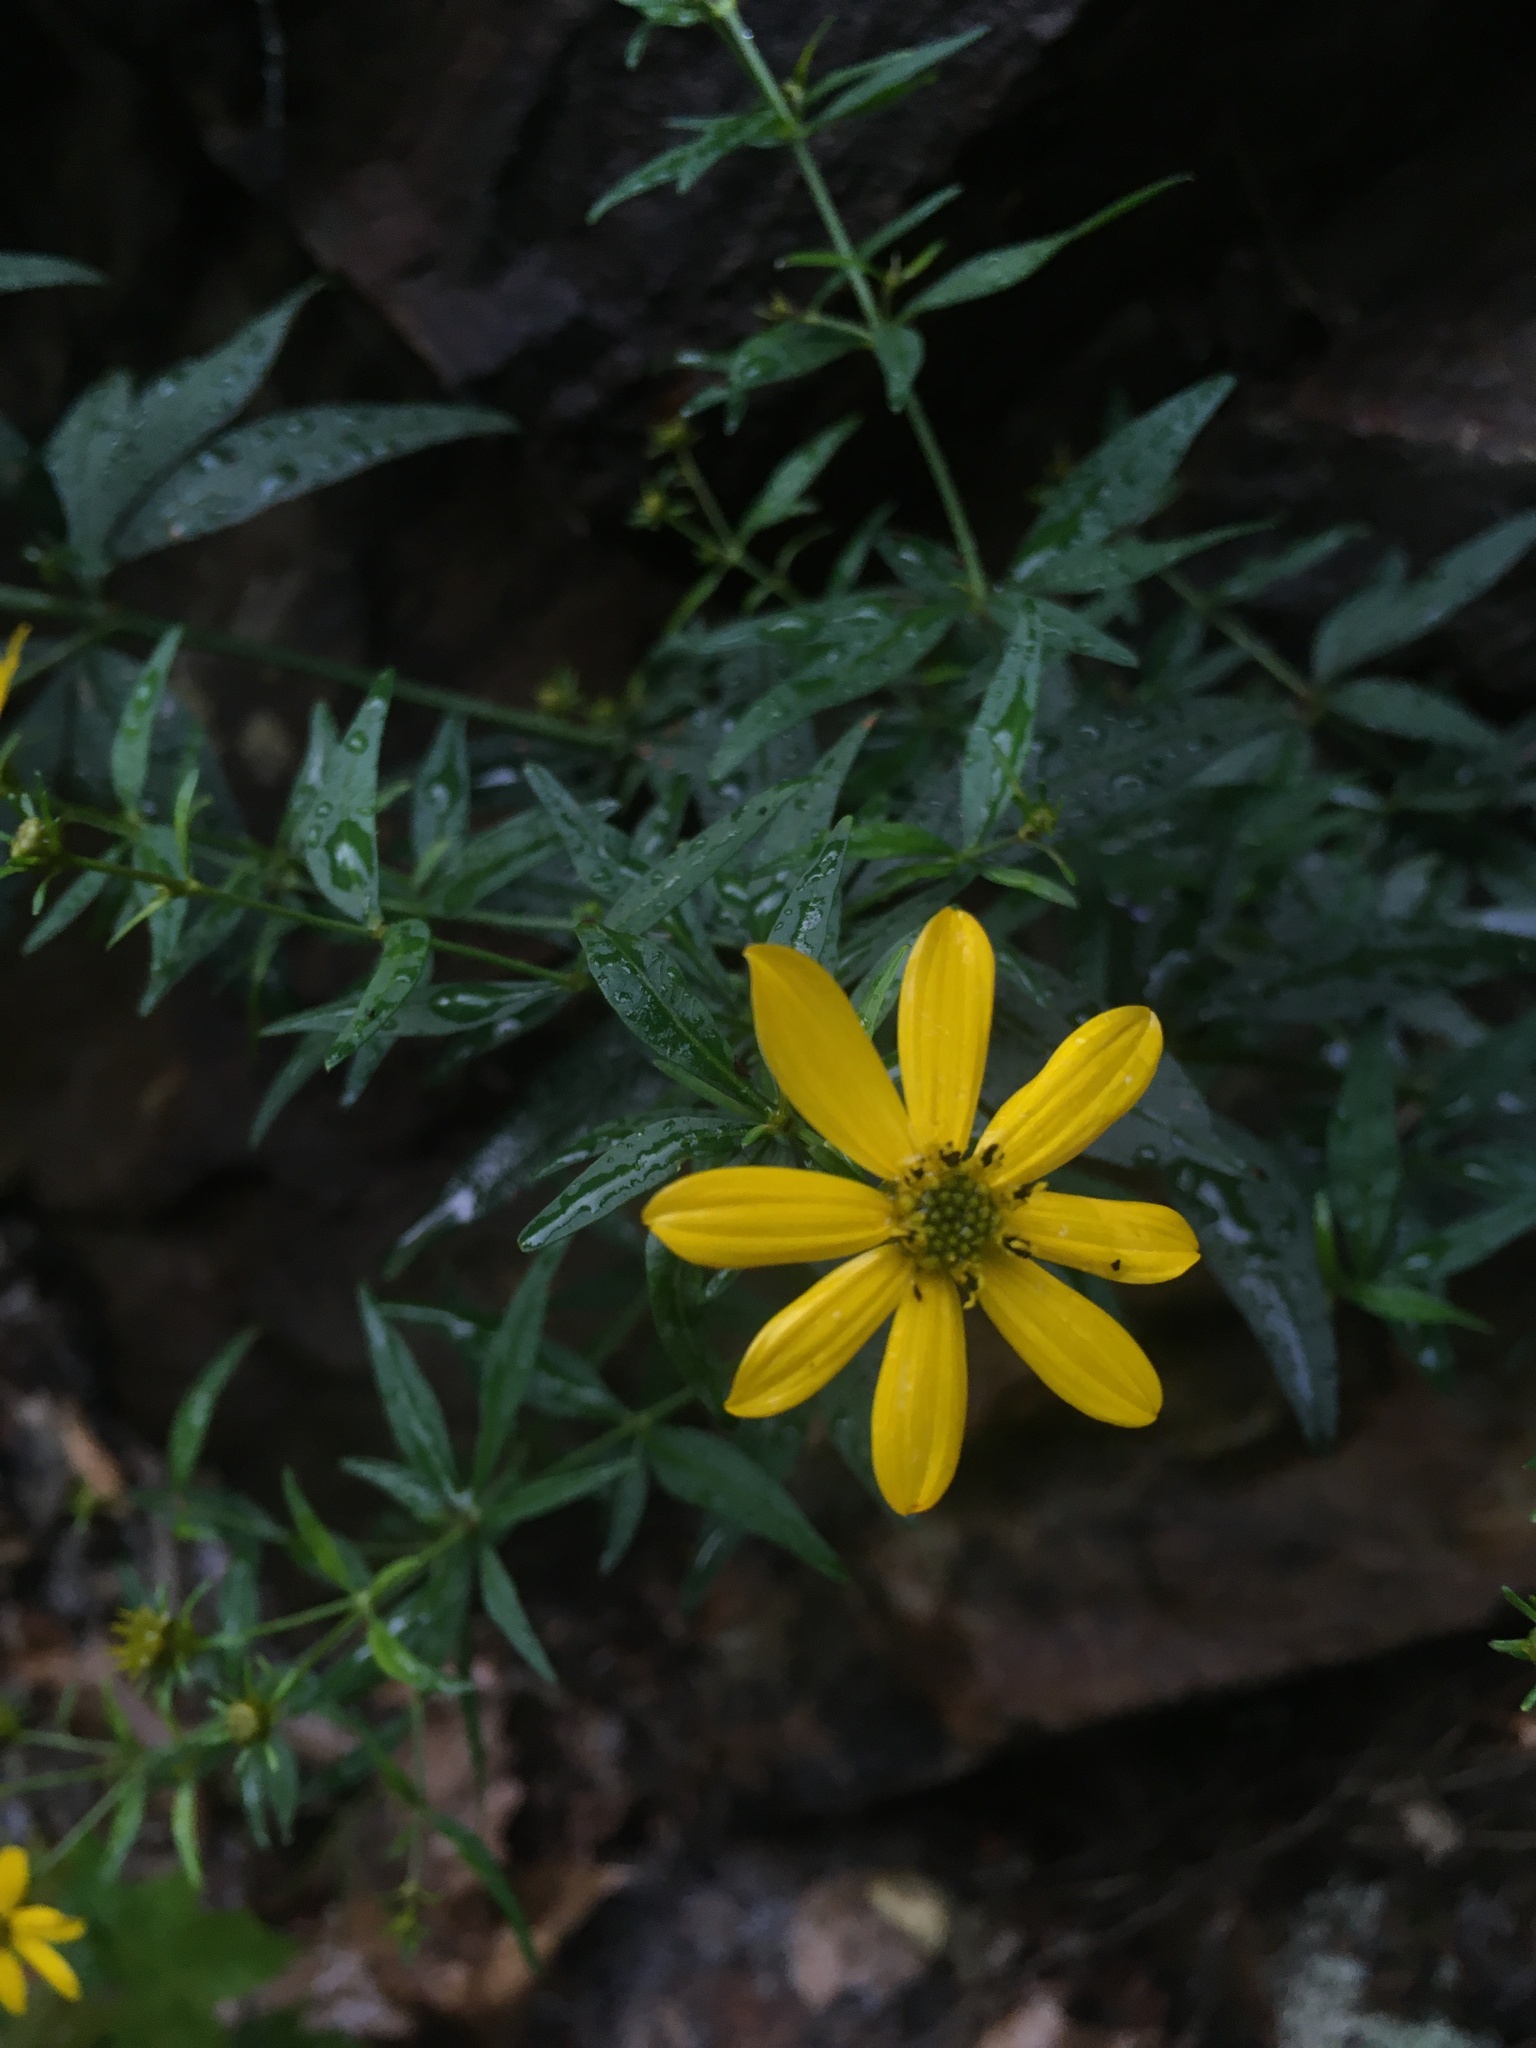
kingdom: Plantae
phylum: Tracheophyta
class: Magnoliopsida
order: Asterales
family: Asteraceae
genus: Coreopsis
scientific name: Coreopsis major
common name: Forest tickseed
